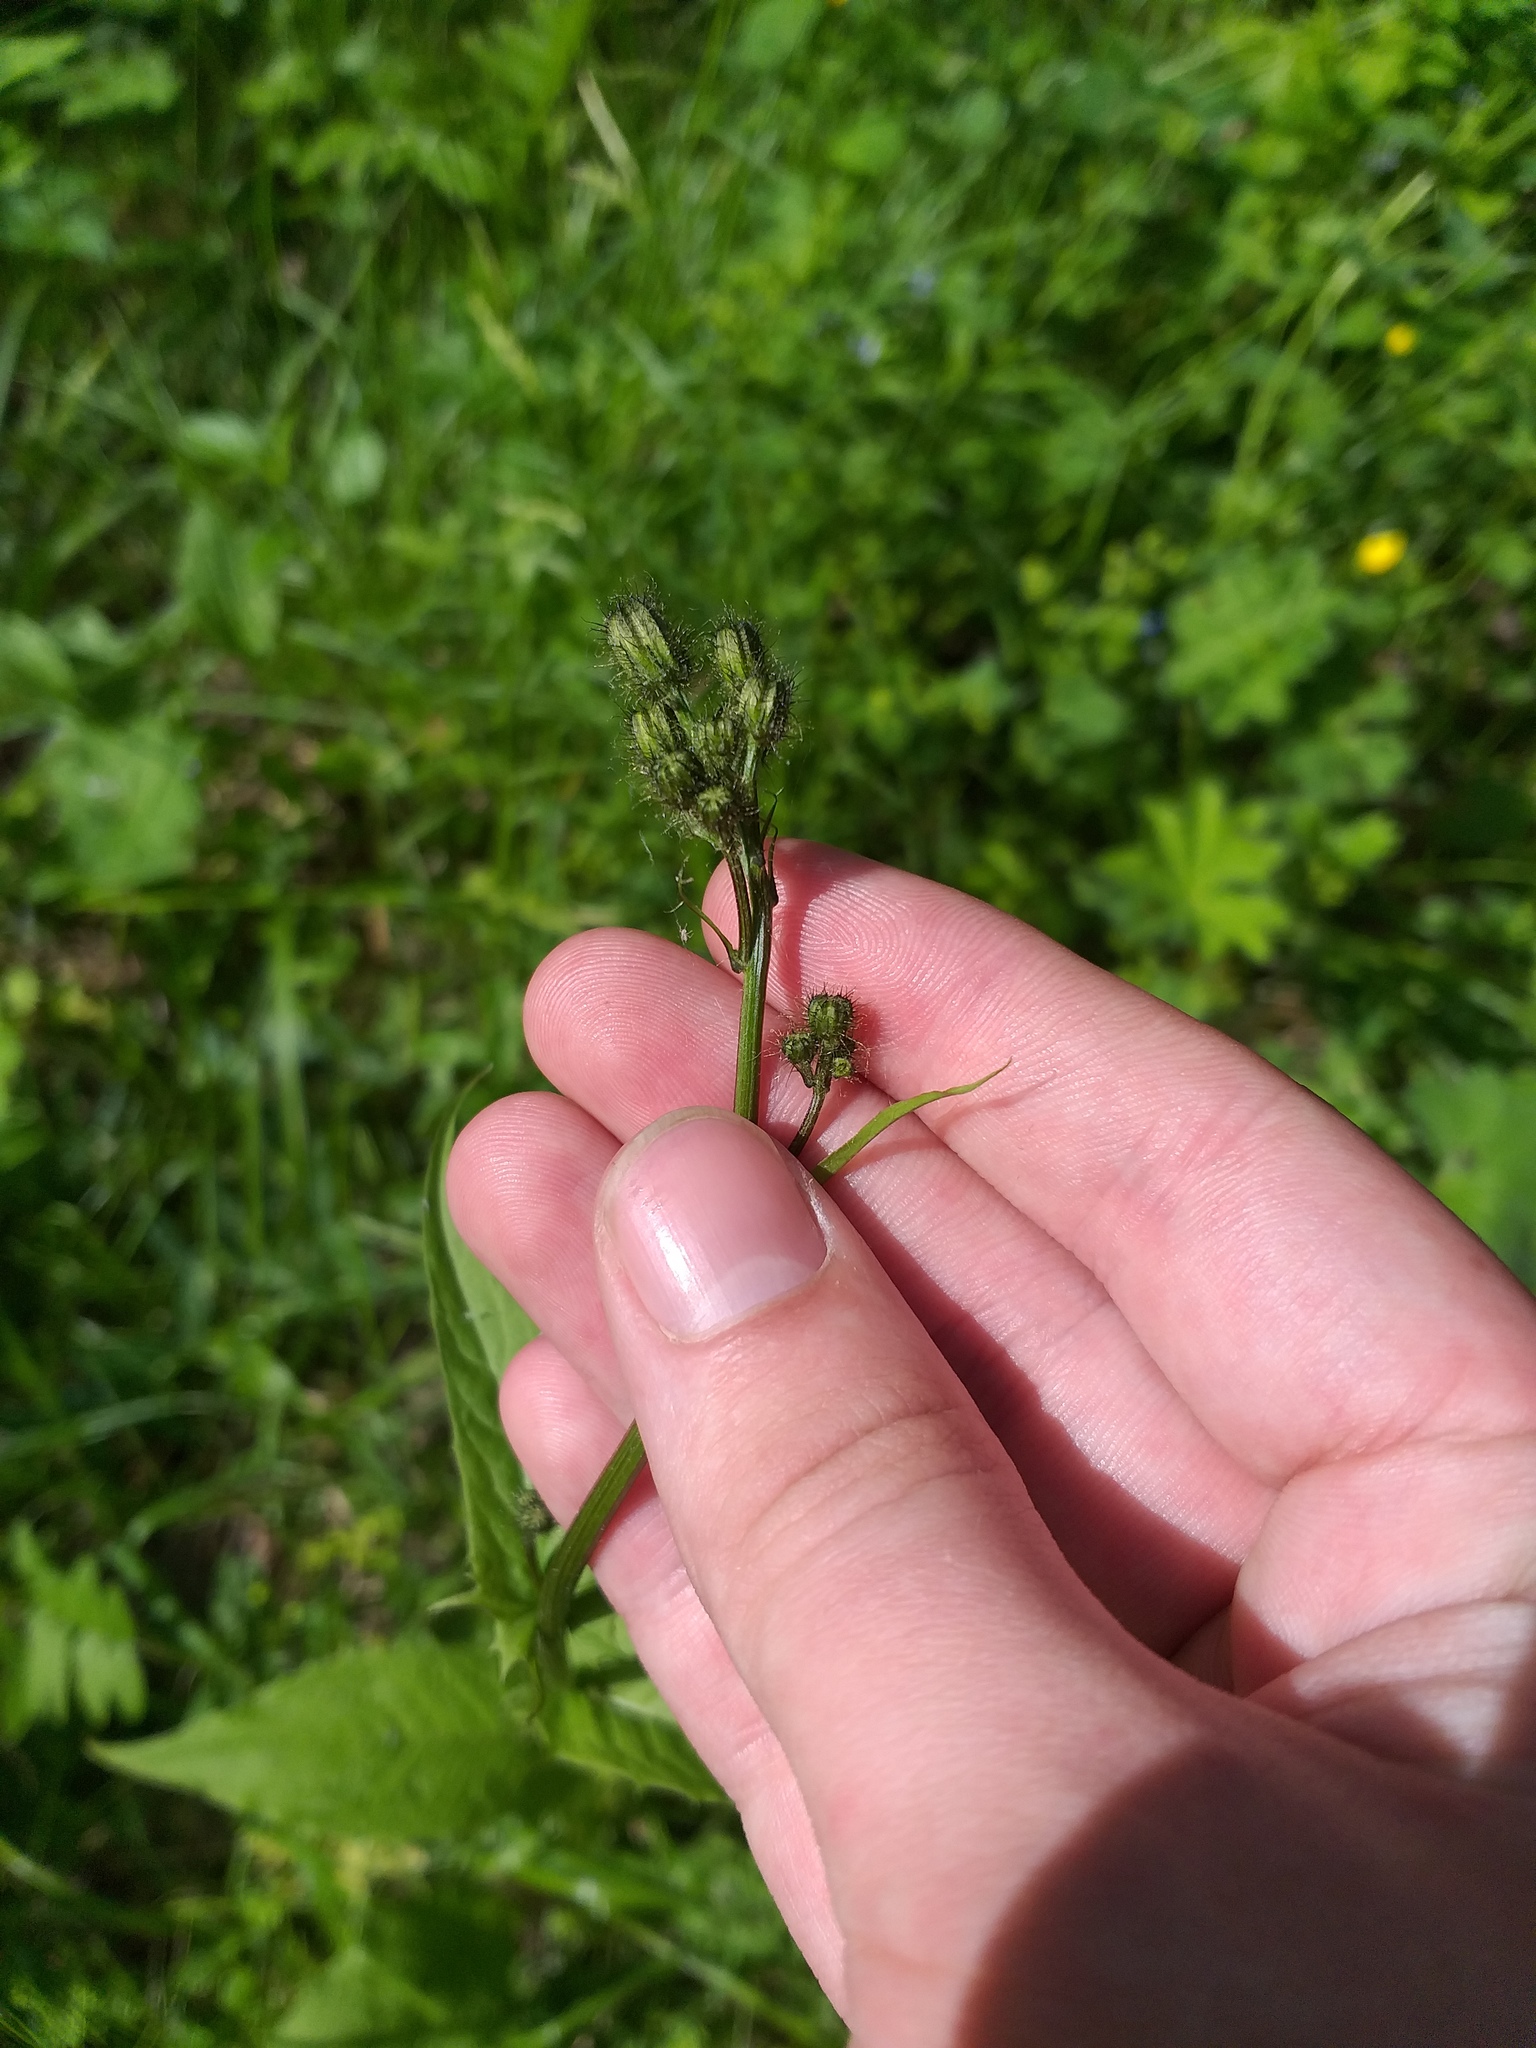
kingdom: Plantae
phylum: Tracheophyta
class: Magnoliopsida
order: Asterales
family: Asteraceae
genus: Crepis
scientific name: Crepis paludosa
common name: Marsh hawk's-beard
